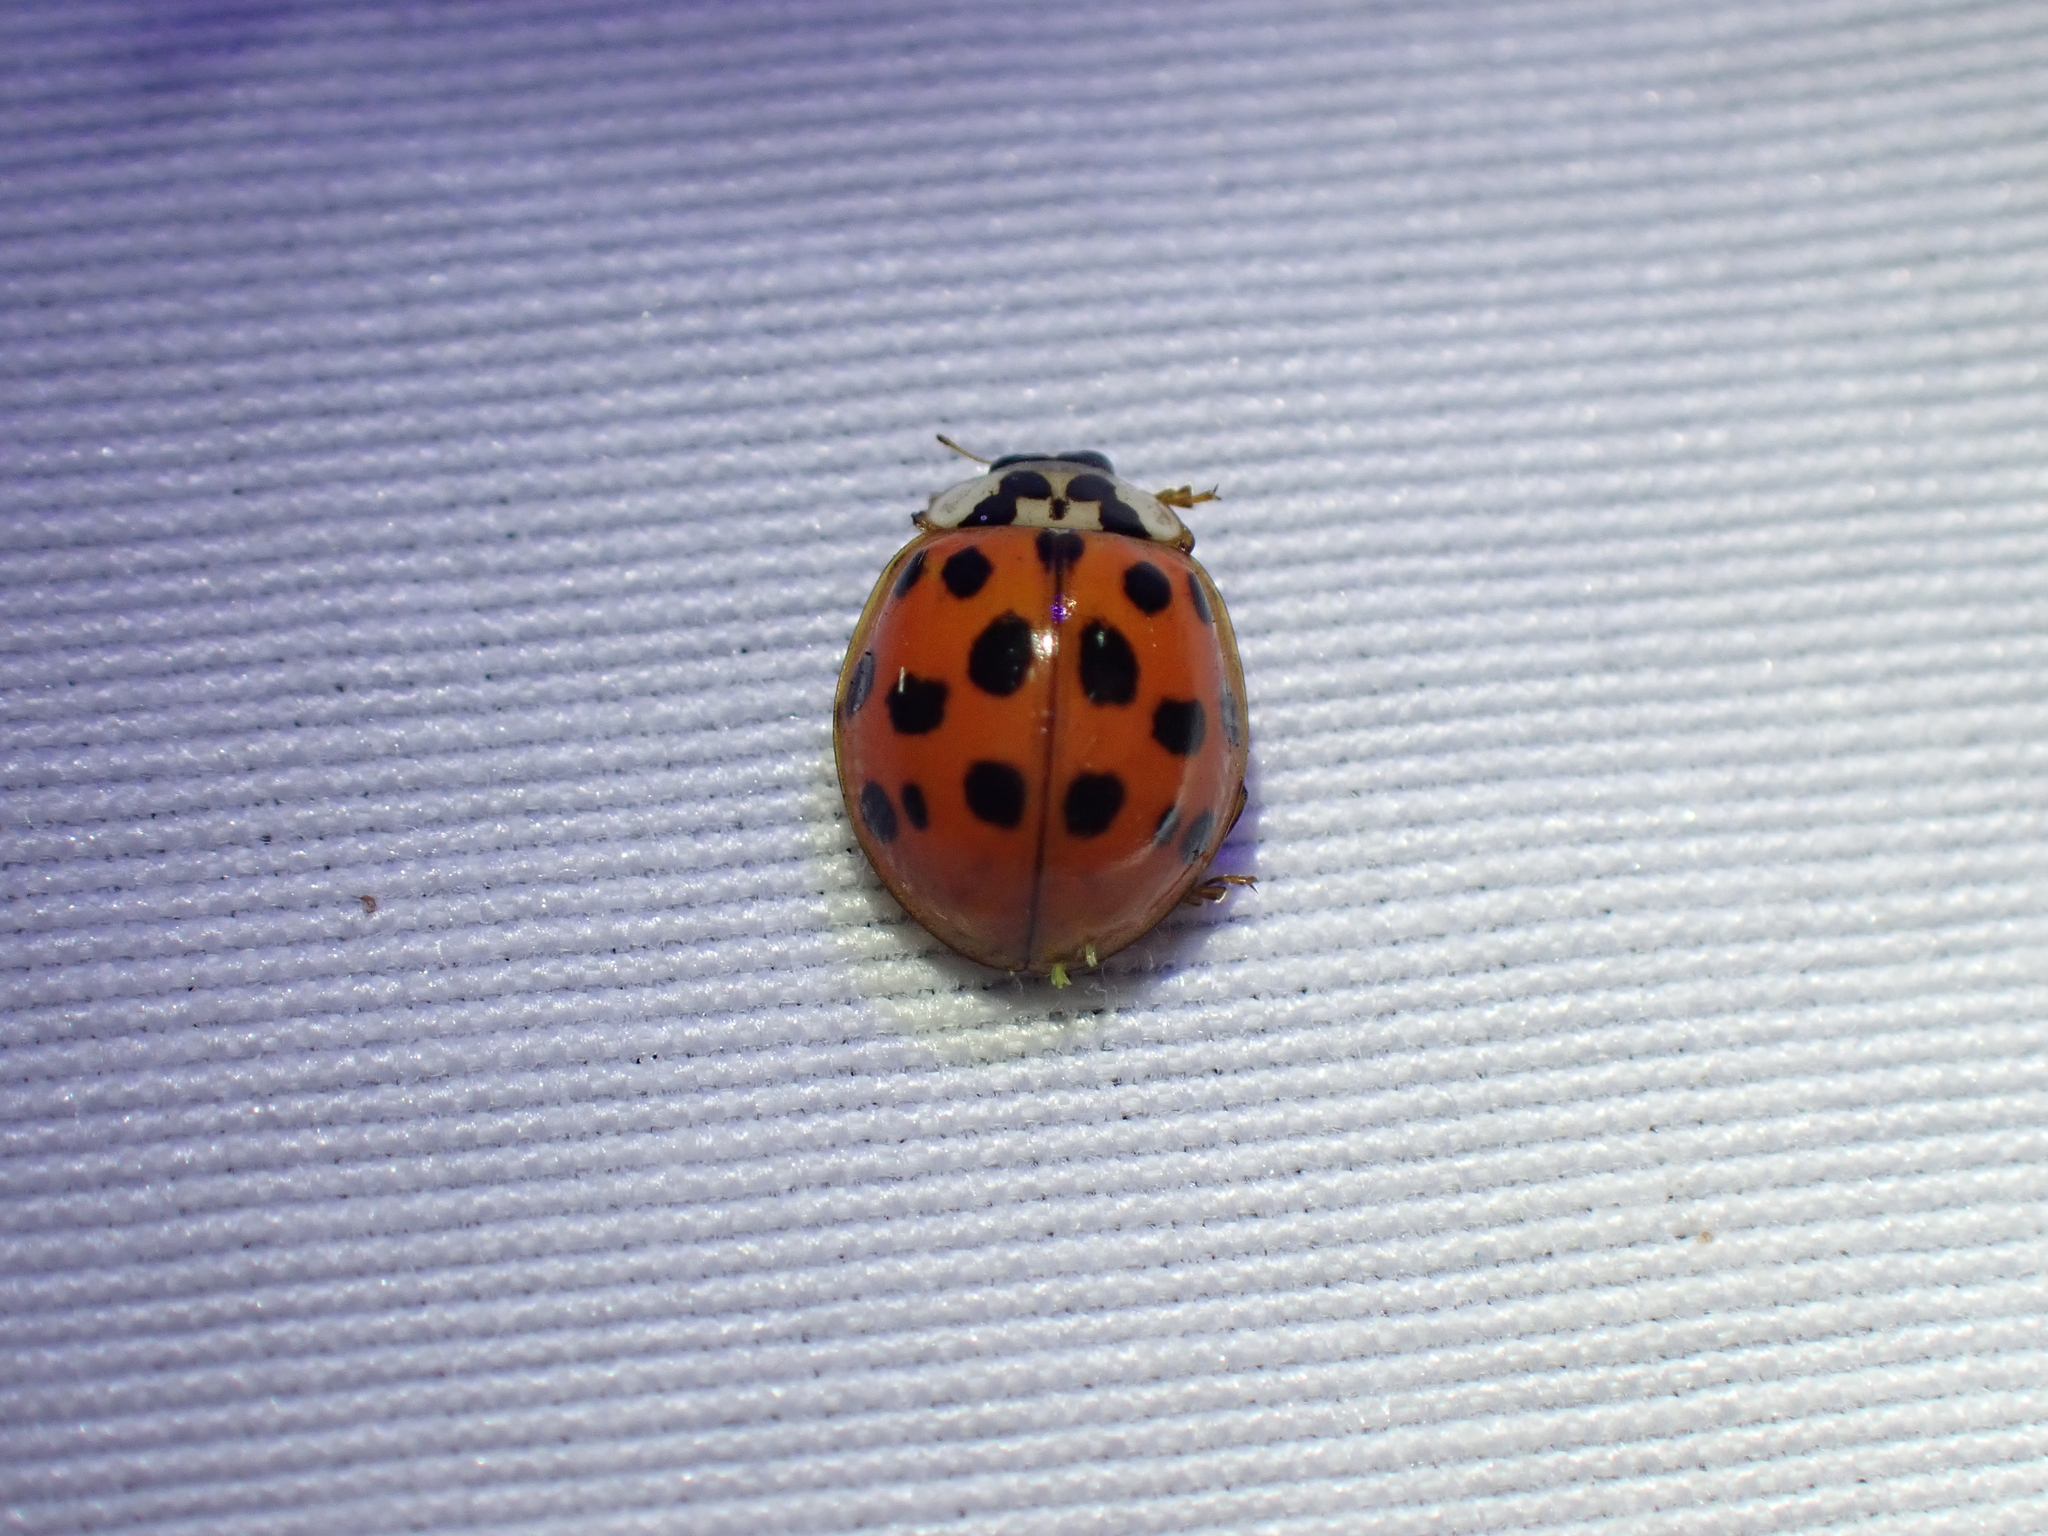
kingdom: Animalia
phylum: Arthropoda
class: Insecta
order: Coleoptera
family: Coccinellidae
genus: Harmonia
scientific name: Harmonia axyridis
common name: Harlequin ladybird
